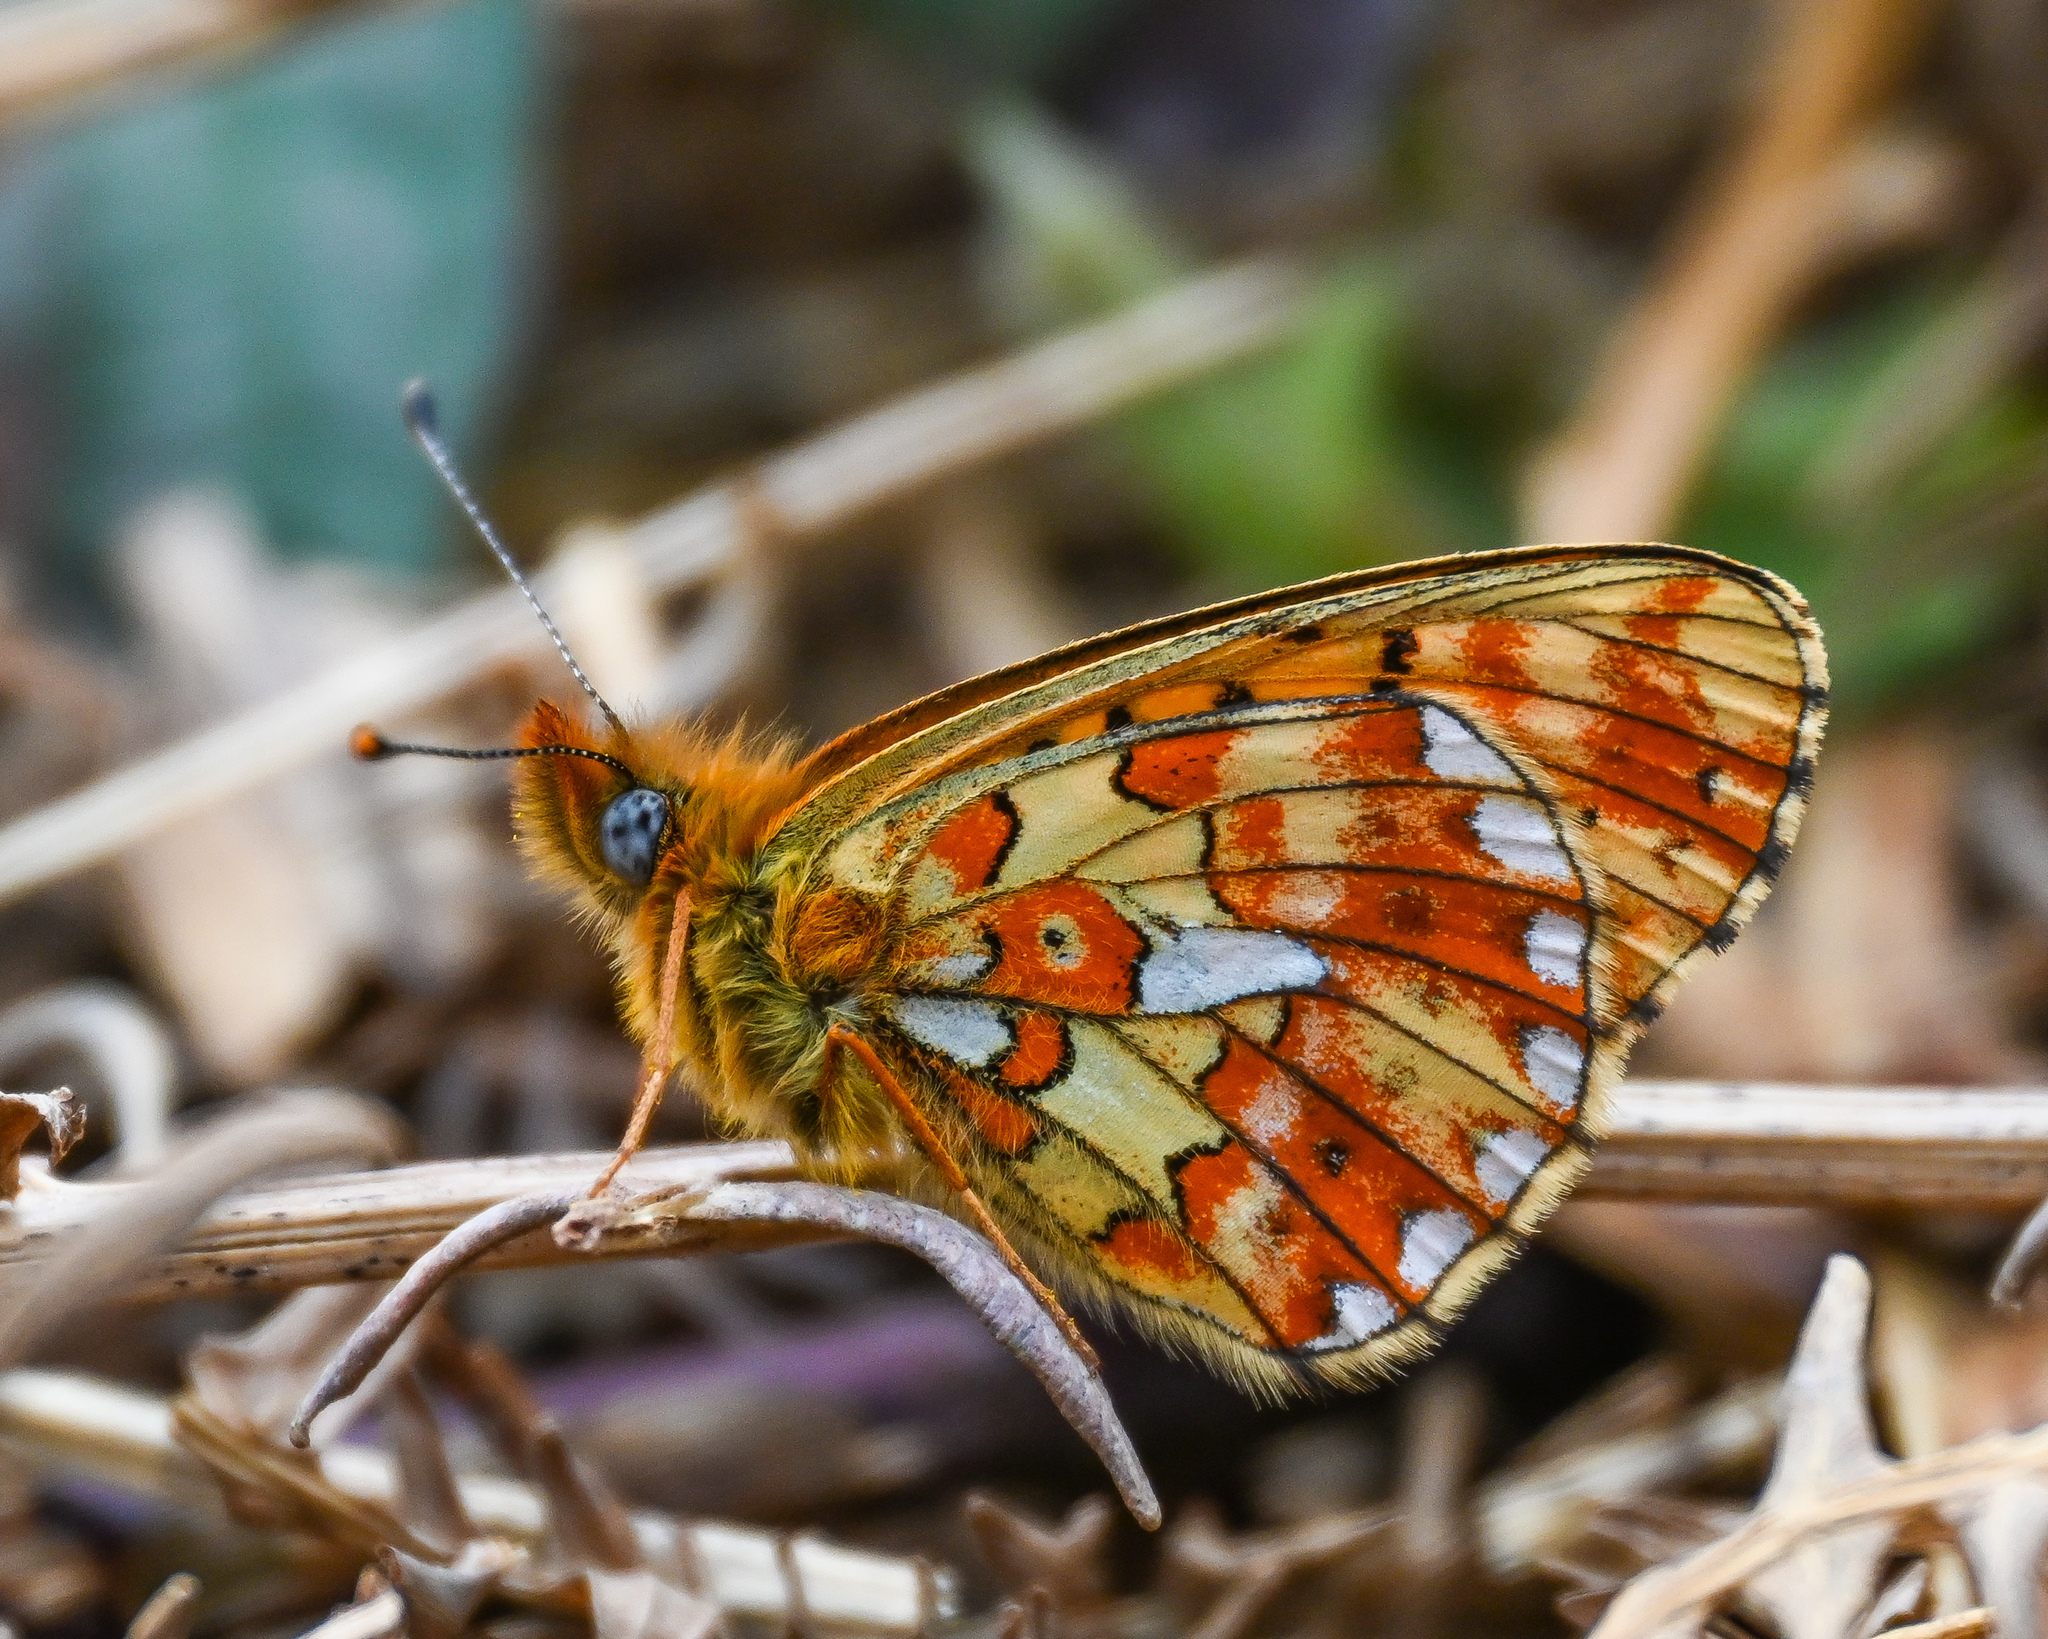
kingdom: Animalia
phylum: Arthropoda
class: Insecta
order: Lepidoptera
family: Nymphalidae
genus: Clossiana
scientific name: Clossiana euphrosyne
